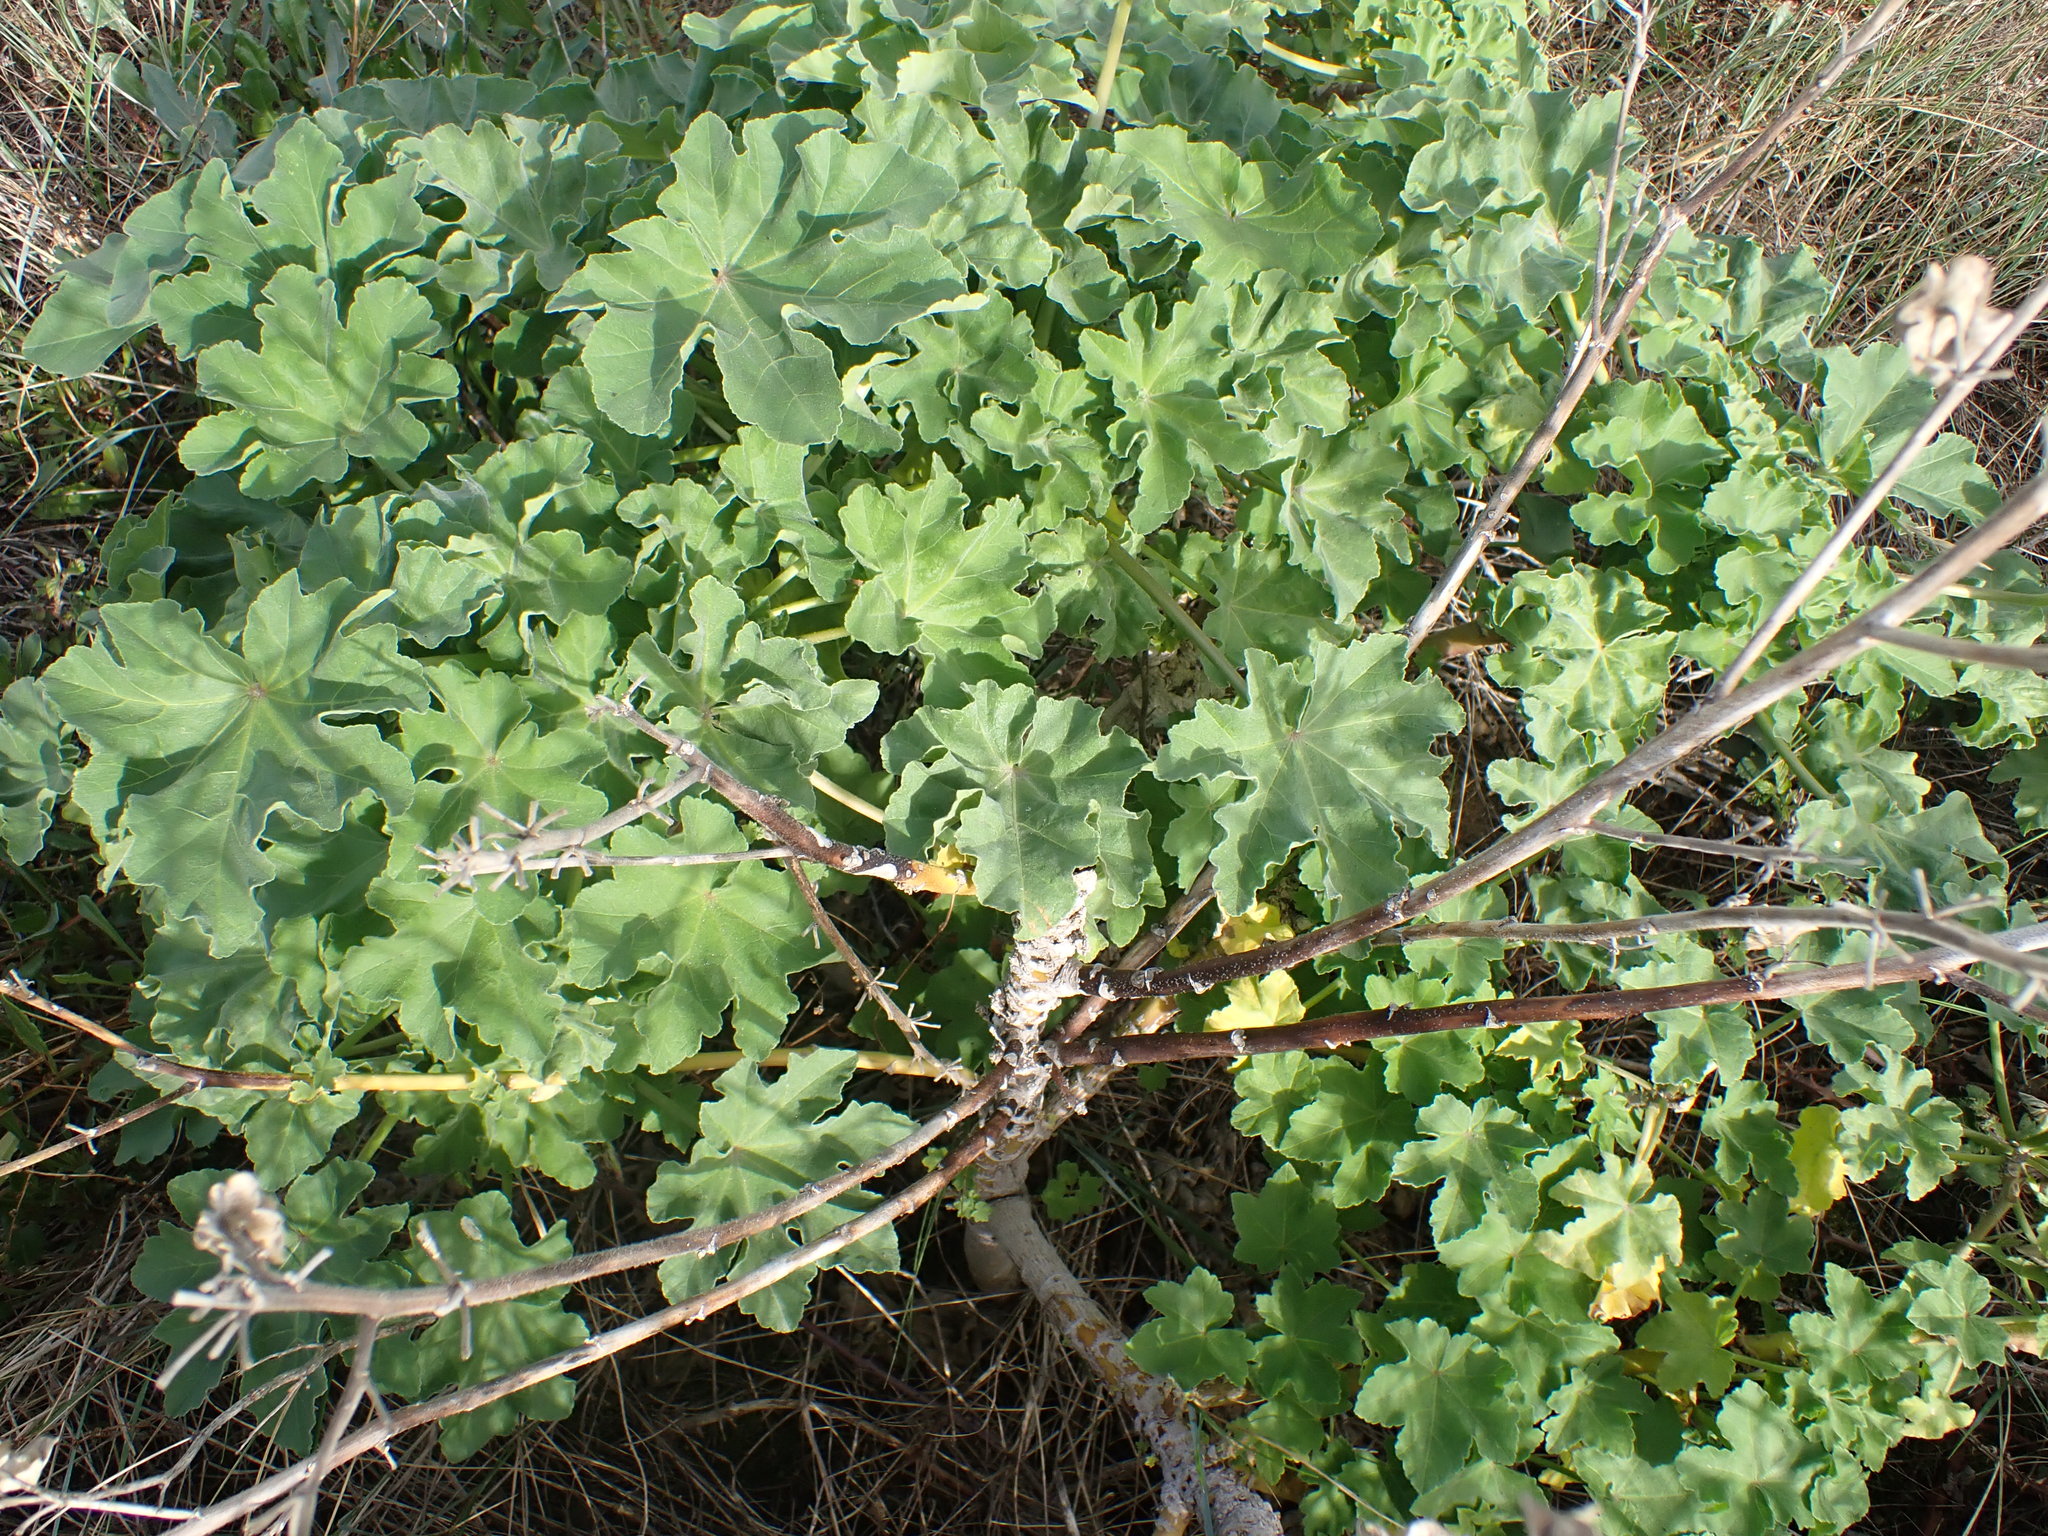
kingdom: Plantae
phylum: Tracheophyta
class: Magnoliopsida
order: Malvales
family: Malvaceae
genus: Malva
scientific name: Malva arborea
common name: Tree mallow
